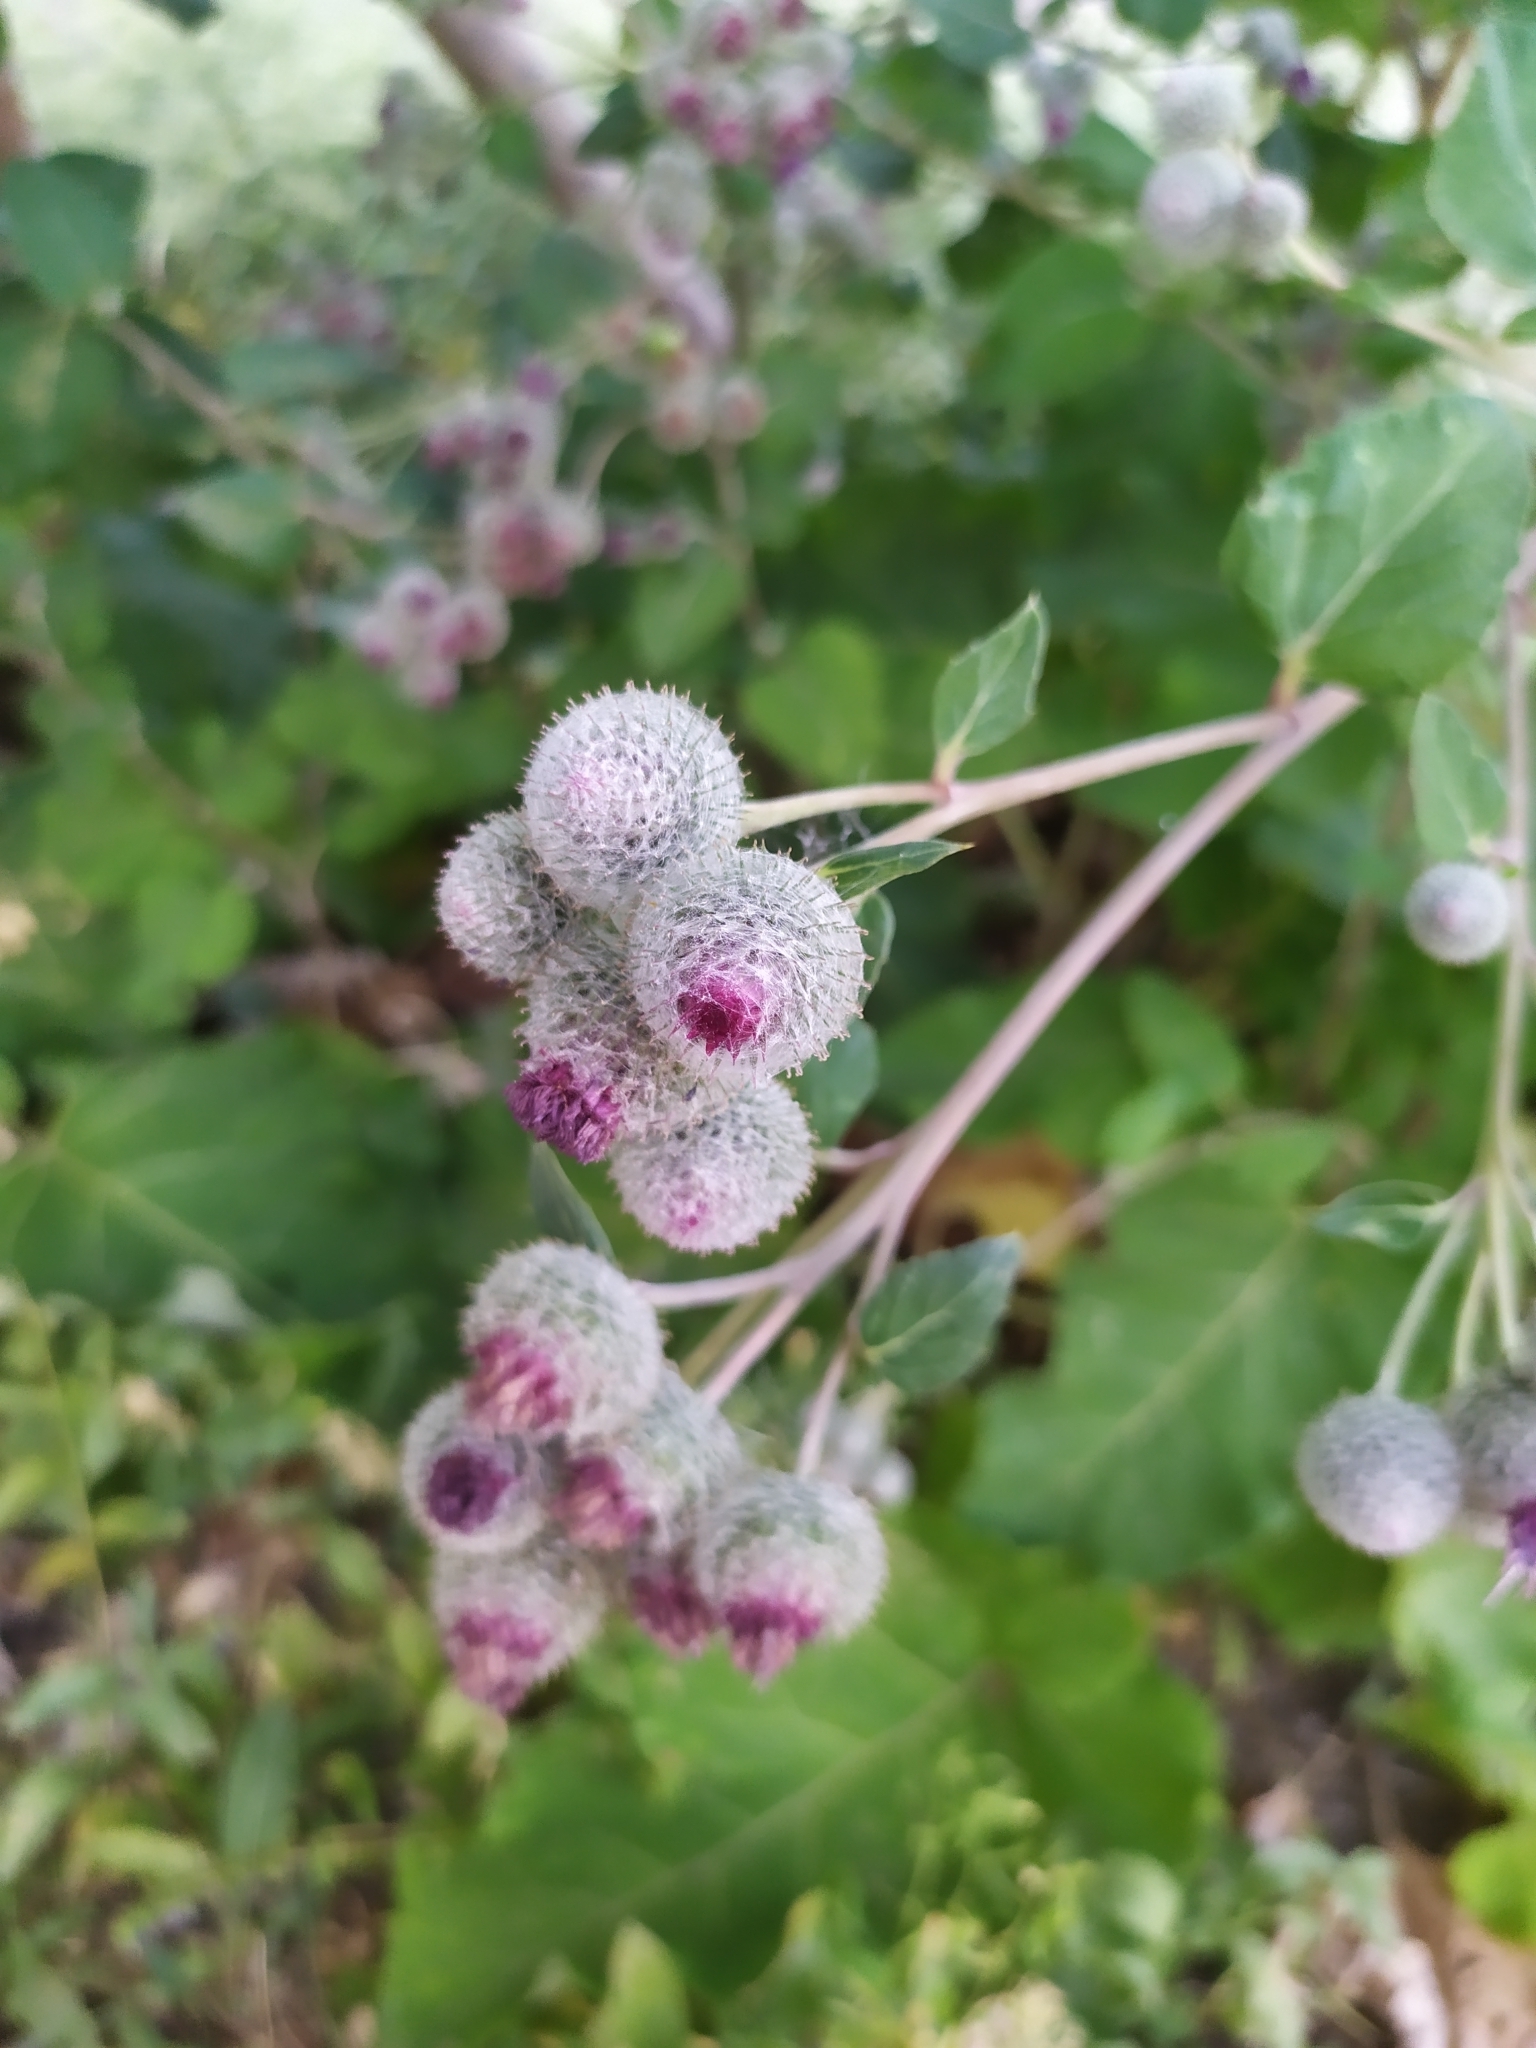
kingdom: Plantae
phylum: Tracheophyta
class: Magnoliopsida
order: Asterales
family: Asteraceae
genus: Arctium
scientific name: Arctium tomentosum
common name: Woolly burdock
